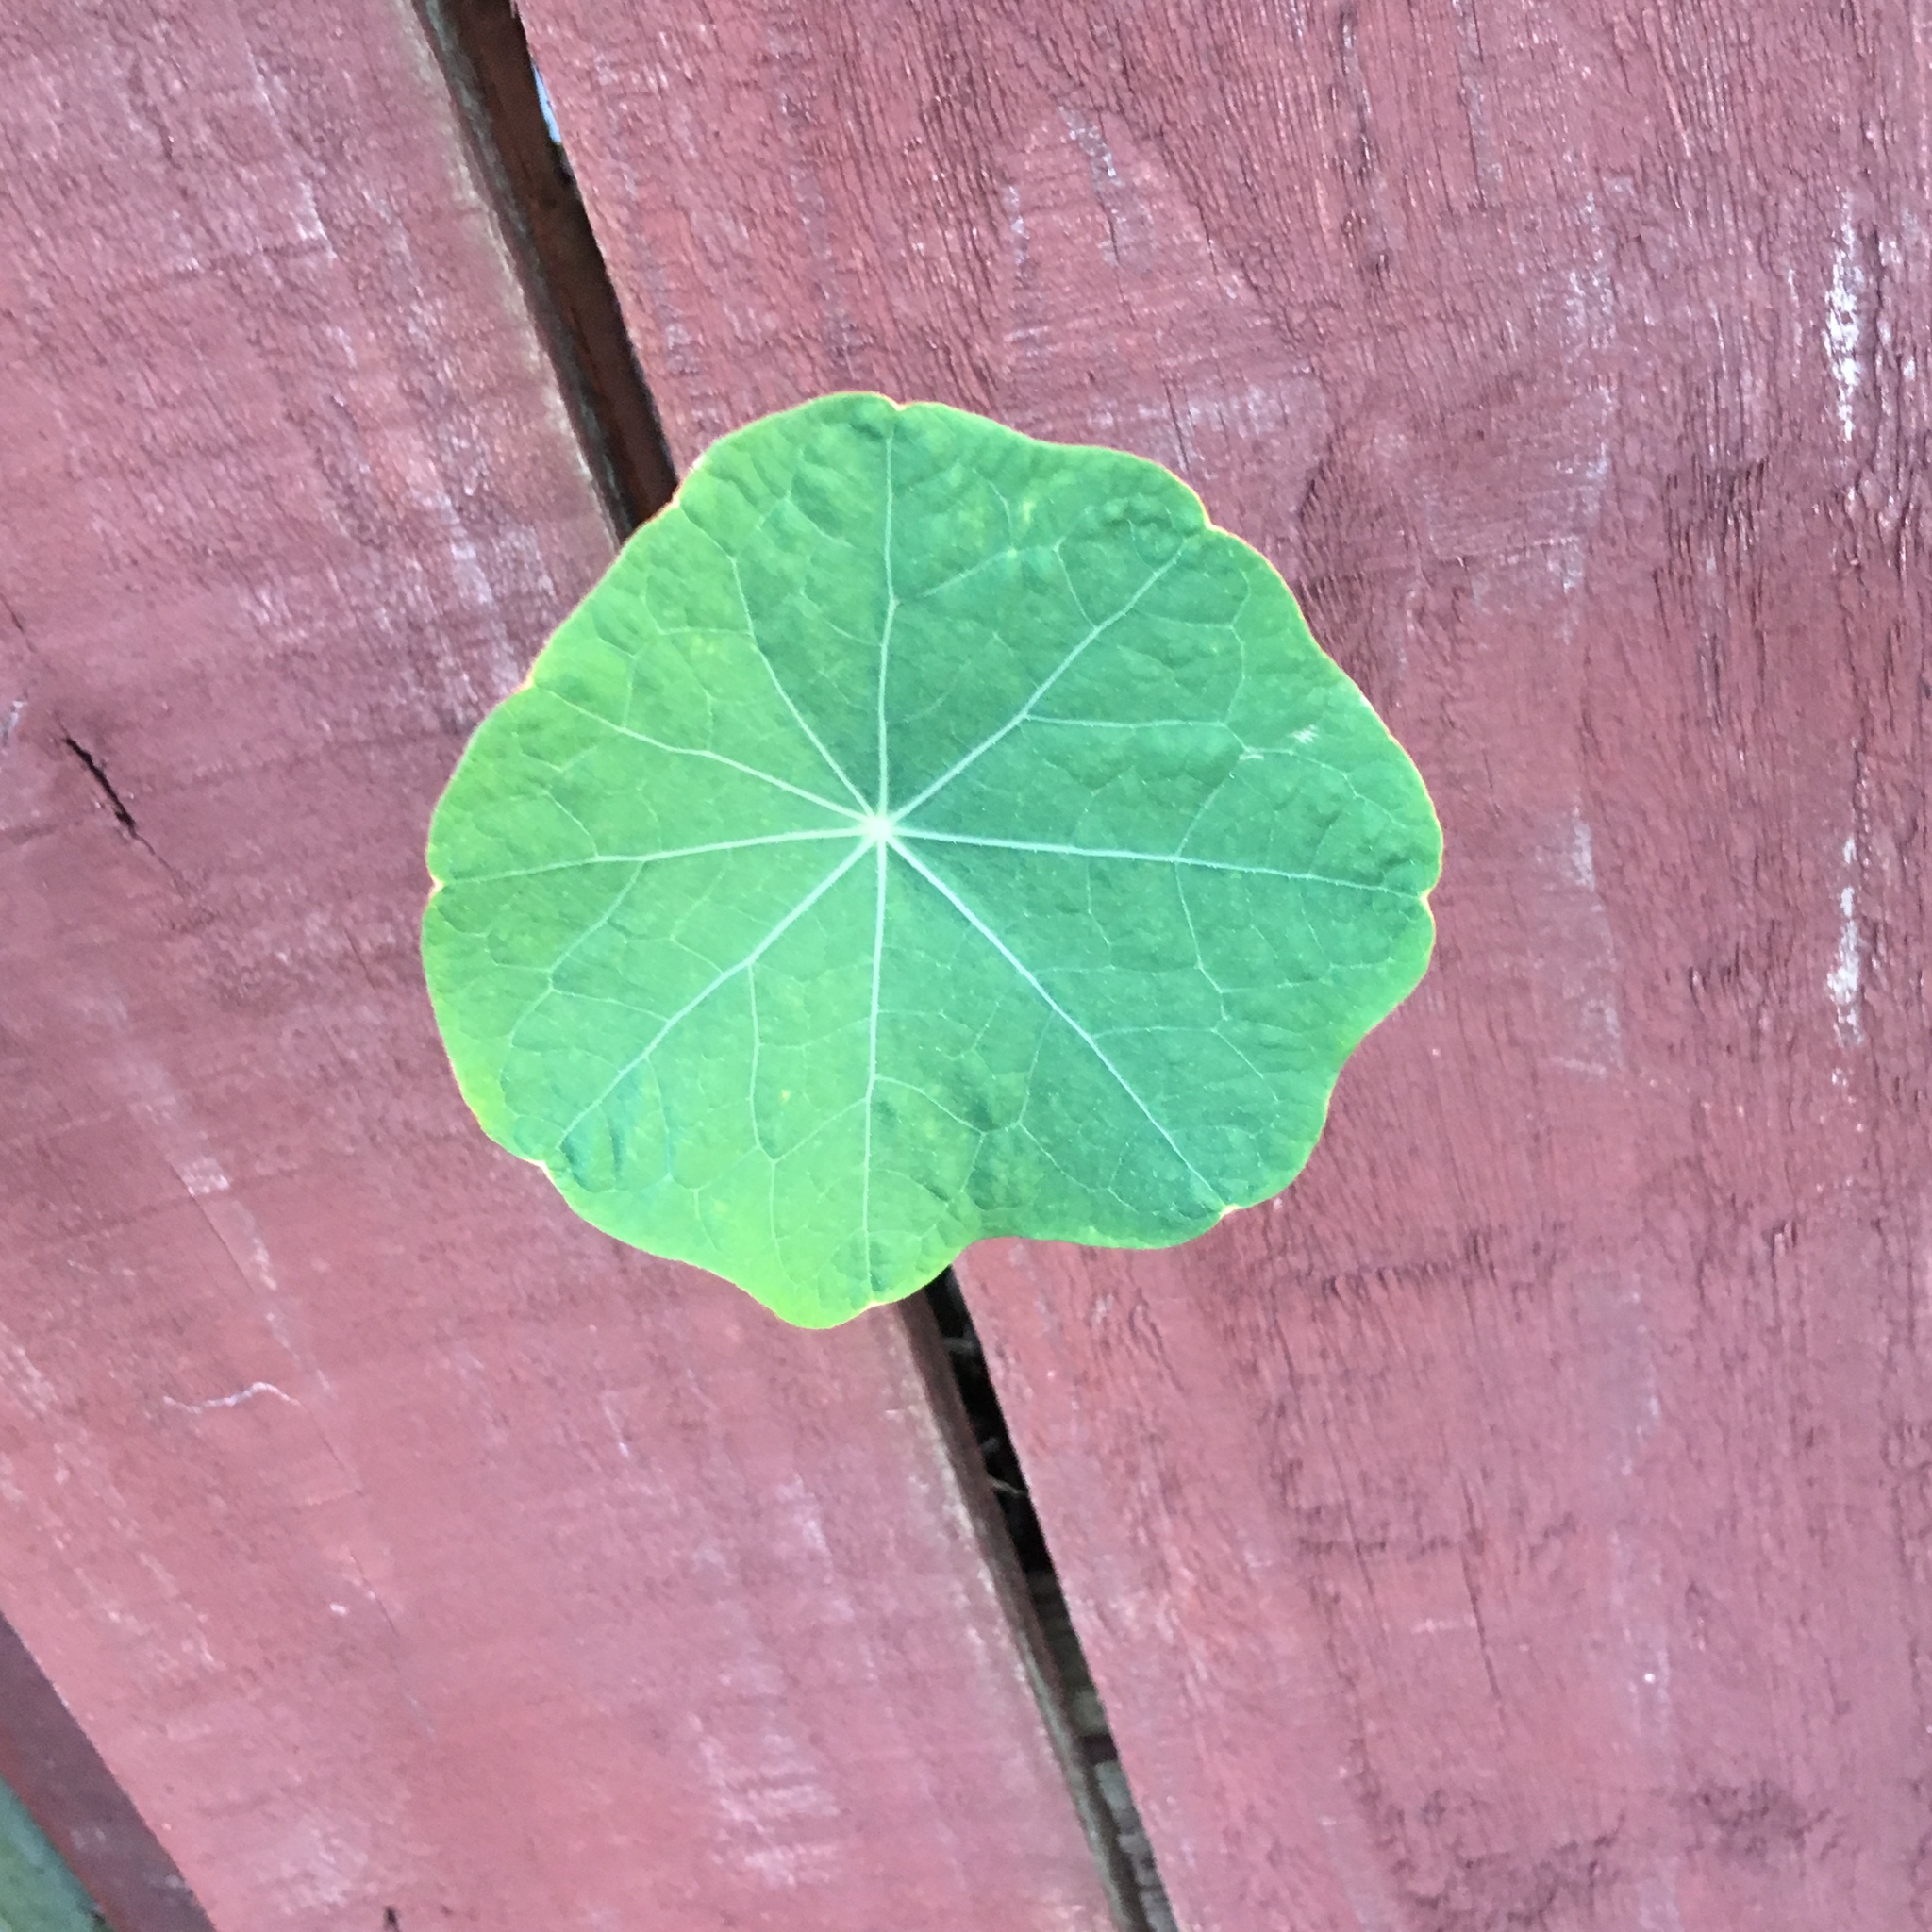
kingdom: Plantae
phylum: Tracheophyta
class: Magnoliopsida
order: Brassicales
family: Tropaeolaceae
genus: Tropaeolum
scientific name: Tropaeolum majus
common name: Nasturtium
